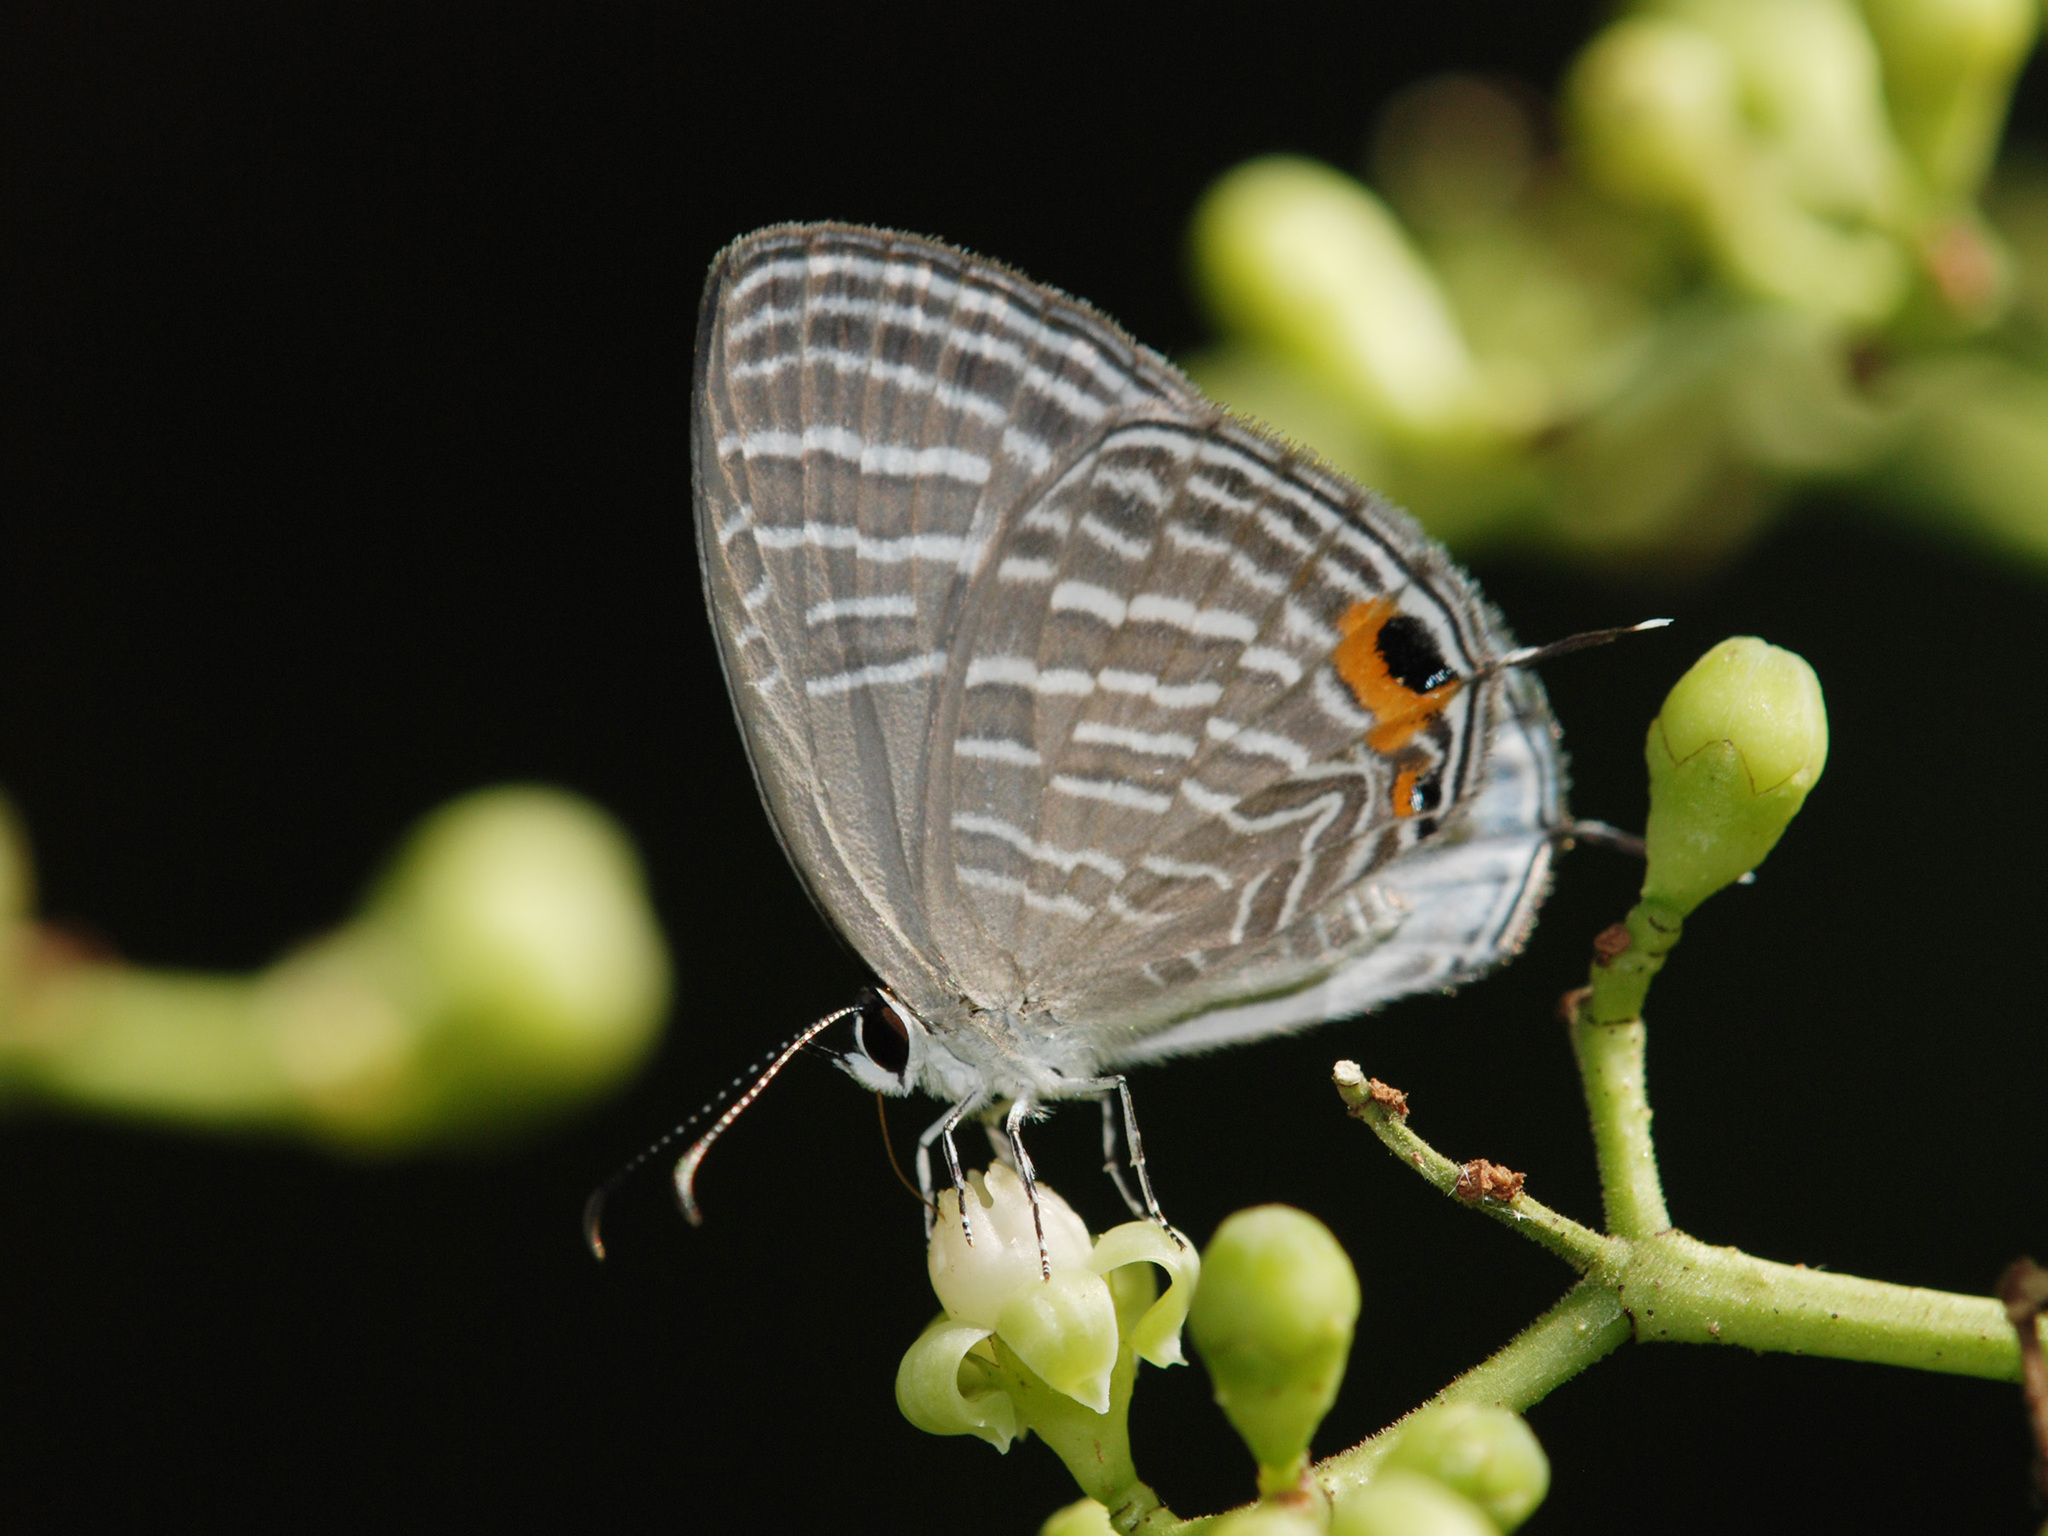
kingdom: Animalia
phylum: Arthropoda
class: Insecta
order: Lepidoptera
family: Lycaenidae
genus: Jamides
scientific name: Jamides celeno
